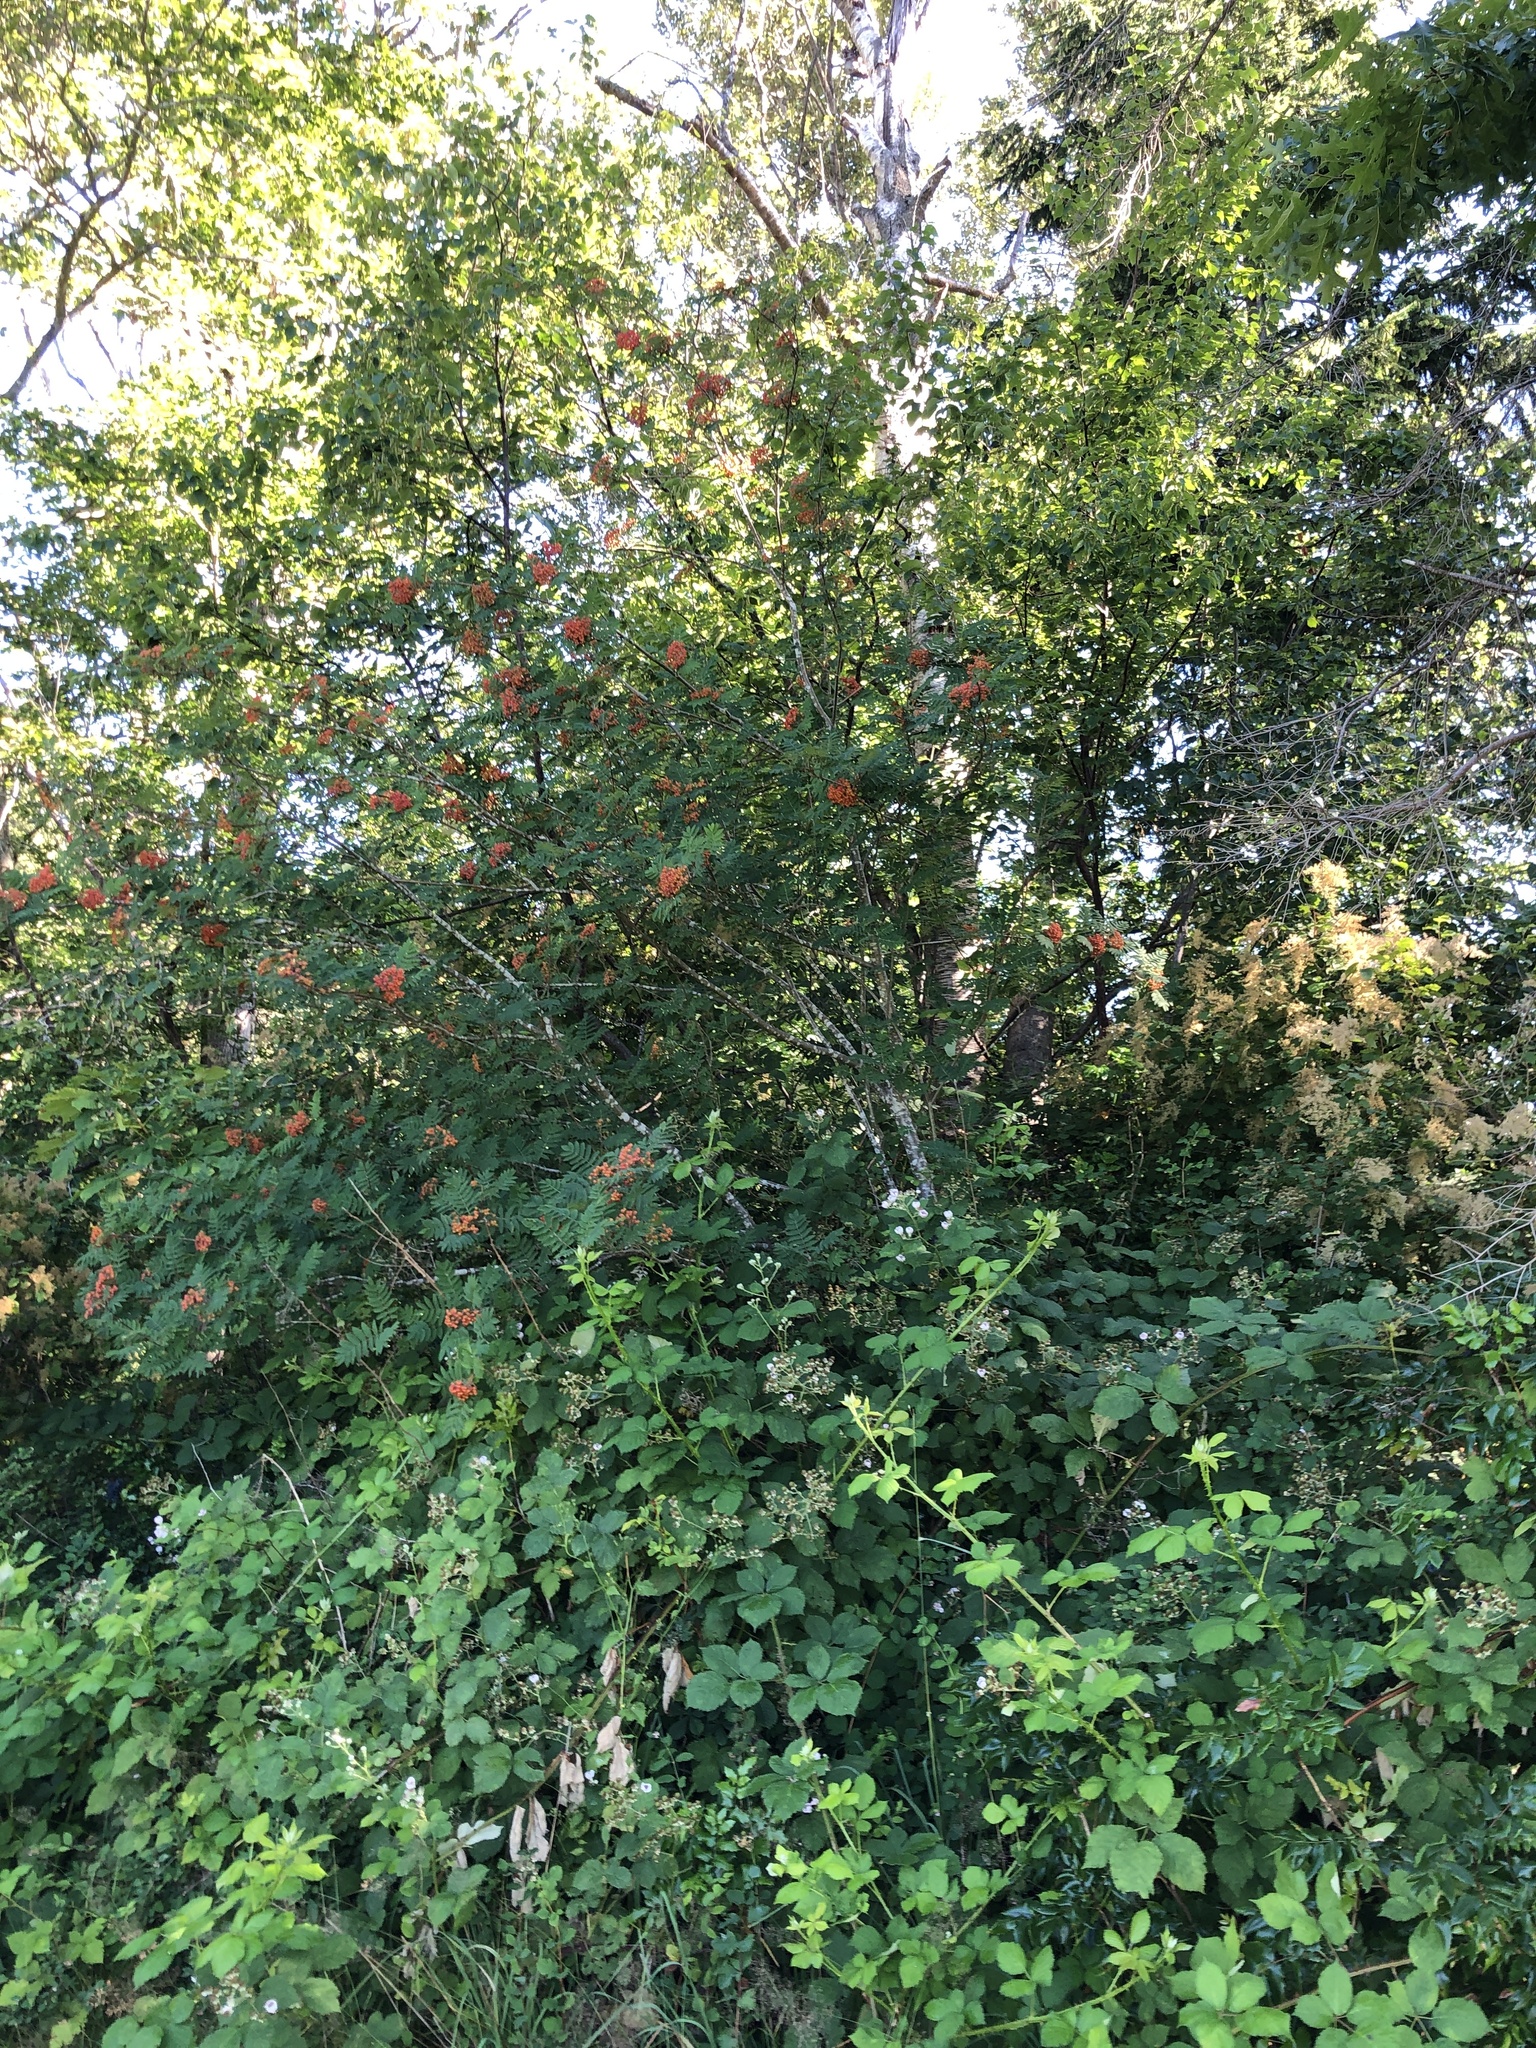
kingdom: Plantae
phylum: Tracheophyta
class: Magnoliopsida
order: Rosales
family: Rosaceae
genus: Sorbus
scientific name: Sorbus aucuparia
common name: Rowan
